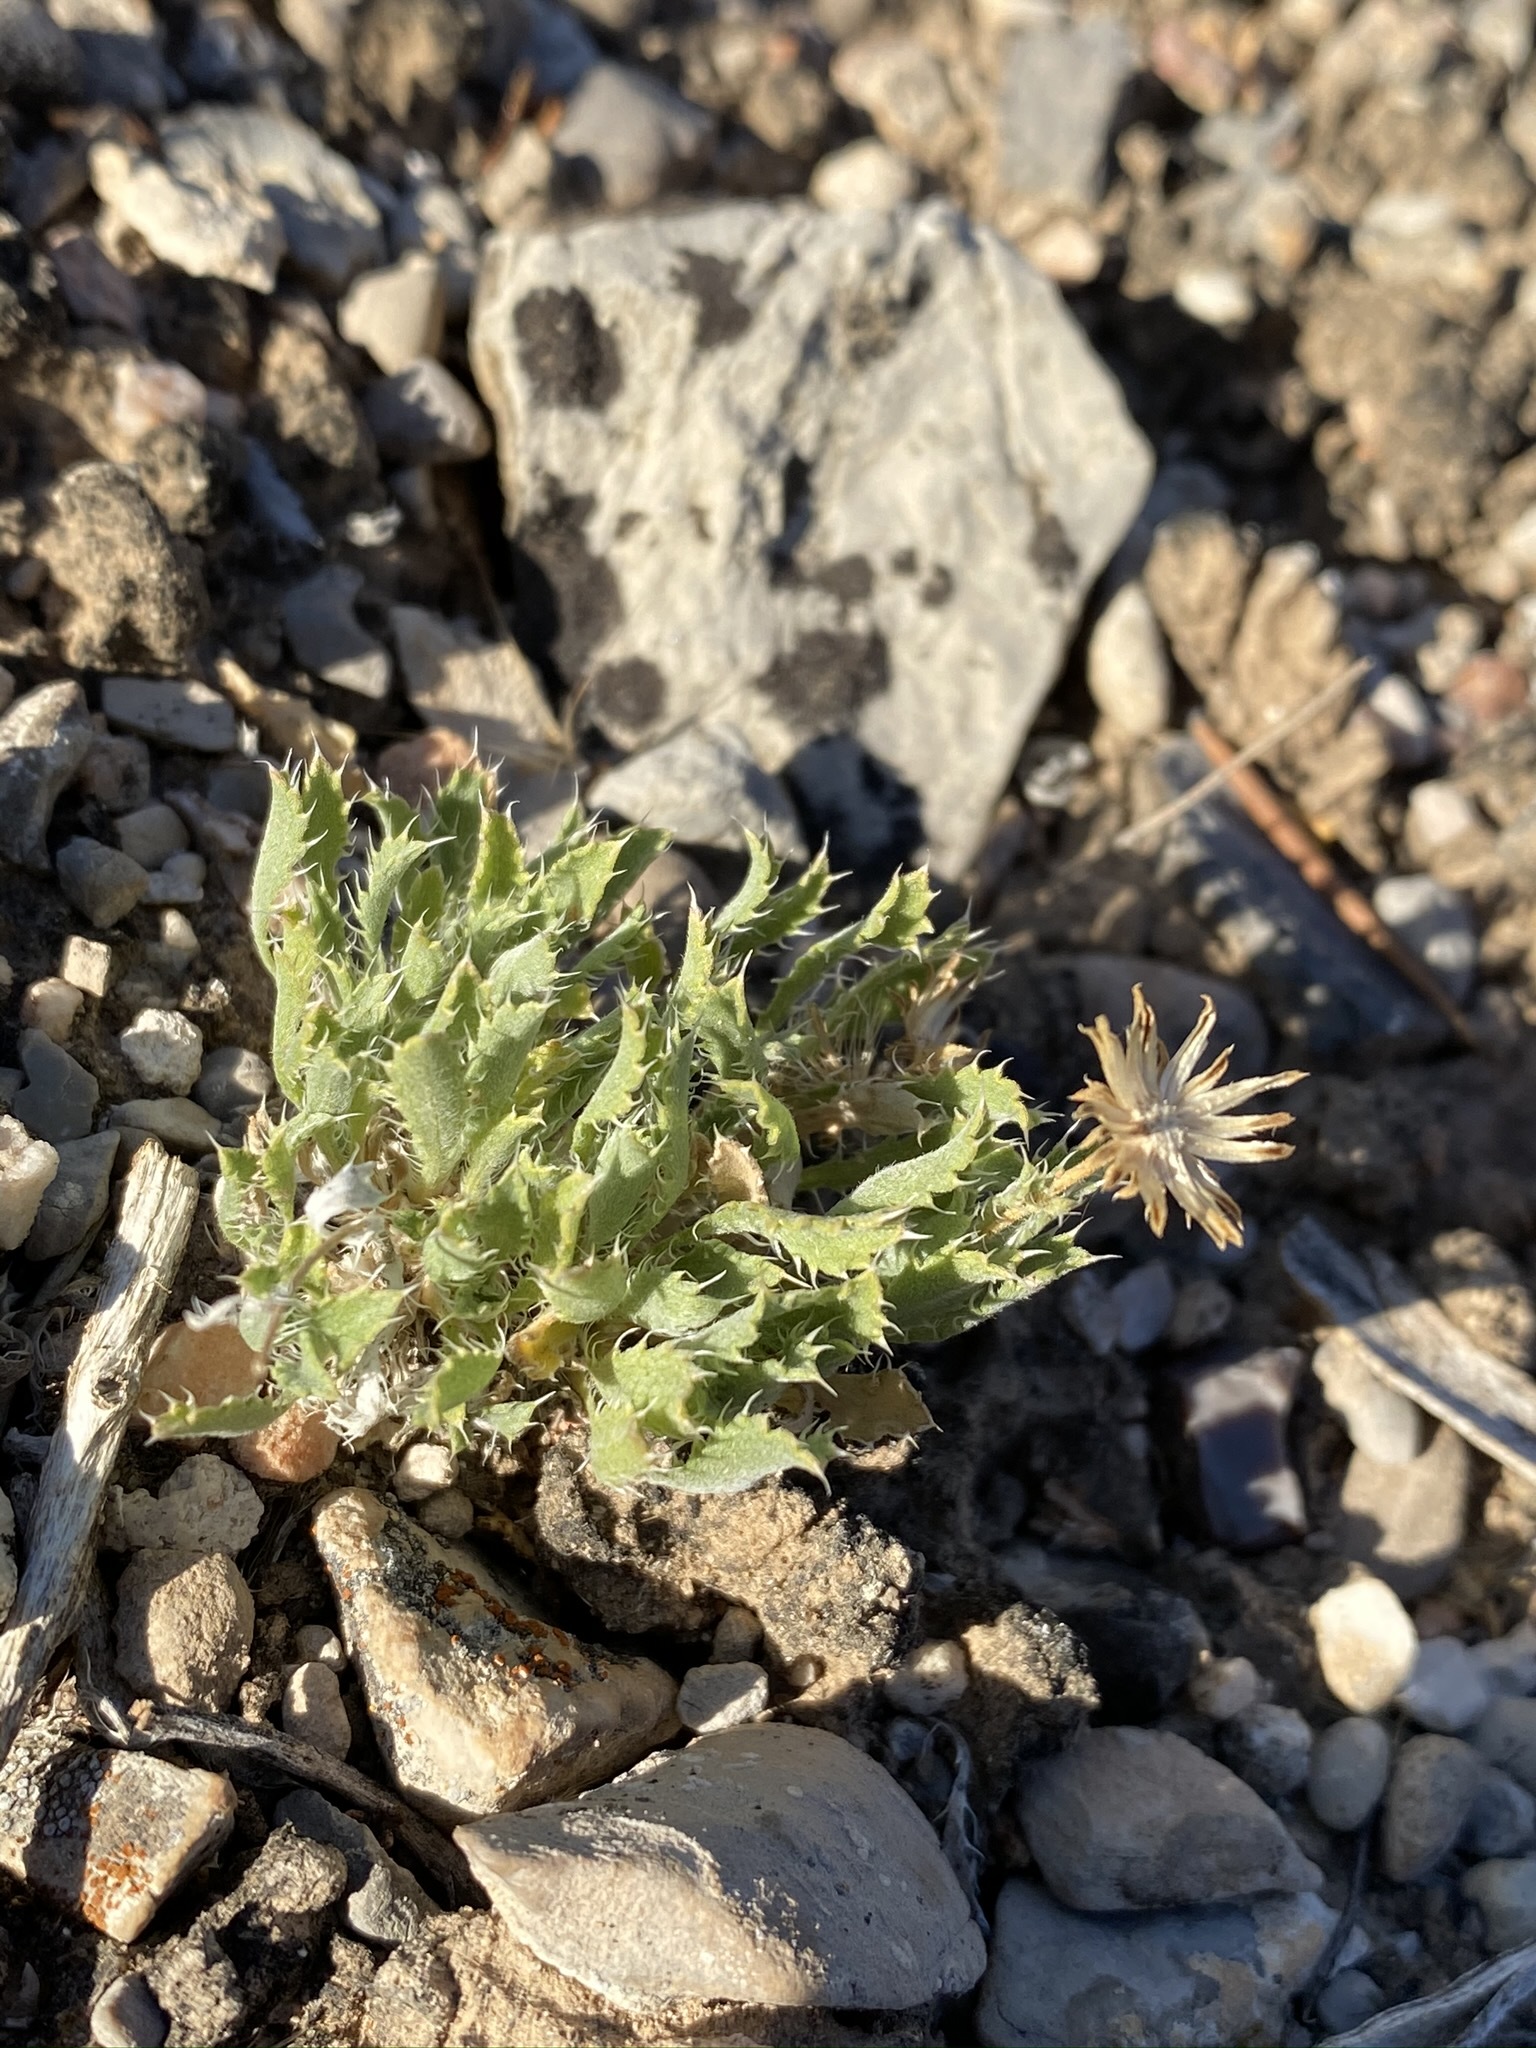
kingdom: Plantae
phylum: Tracheophyta
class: Magnoliopsida
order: Asterales
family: Asteraceae
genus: Xanthisma
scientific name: Xanthisma grindelioides
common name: Goldenweed
